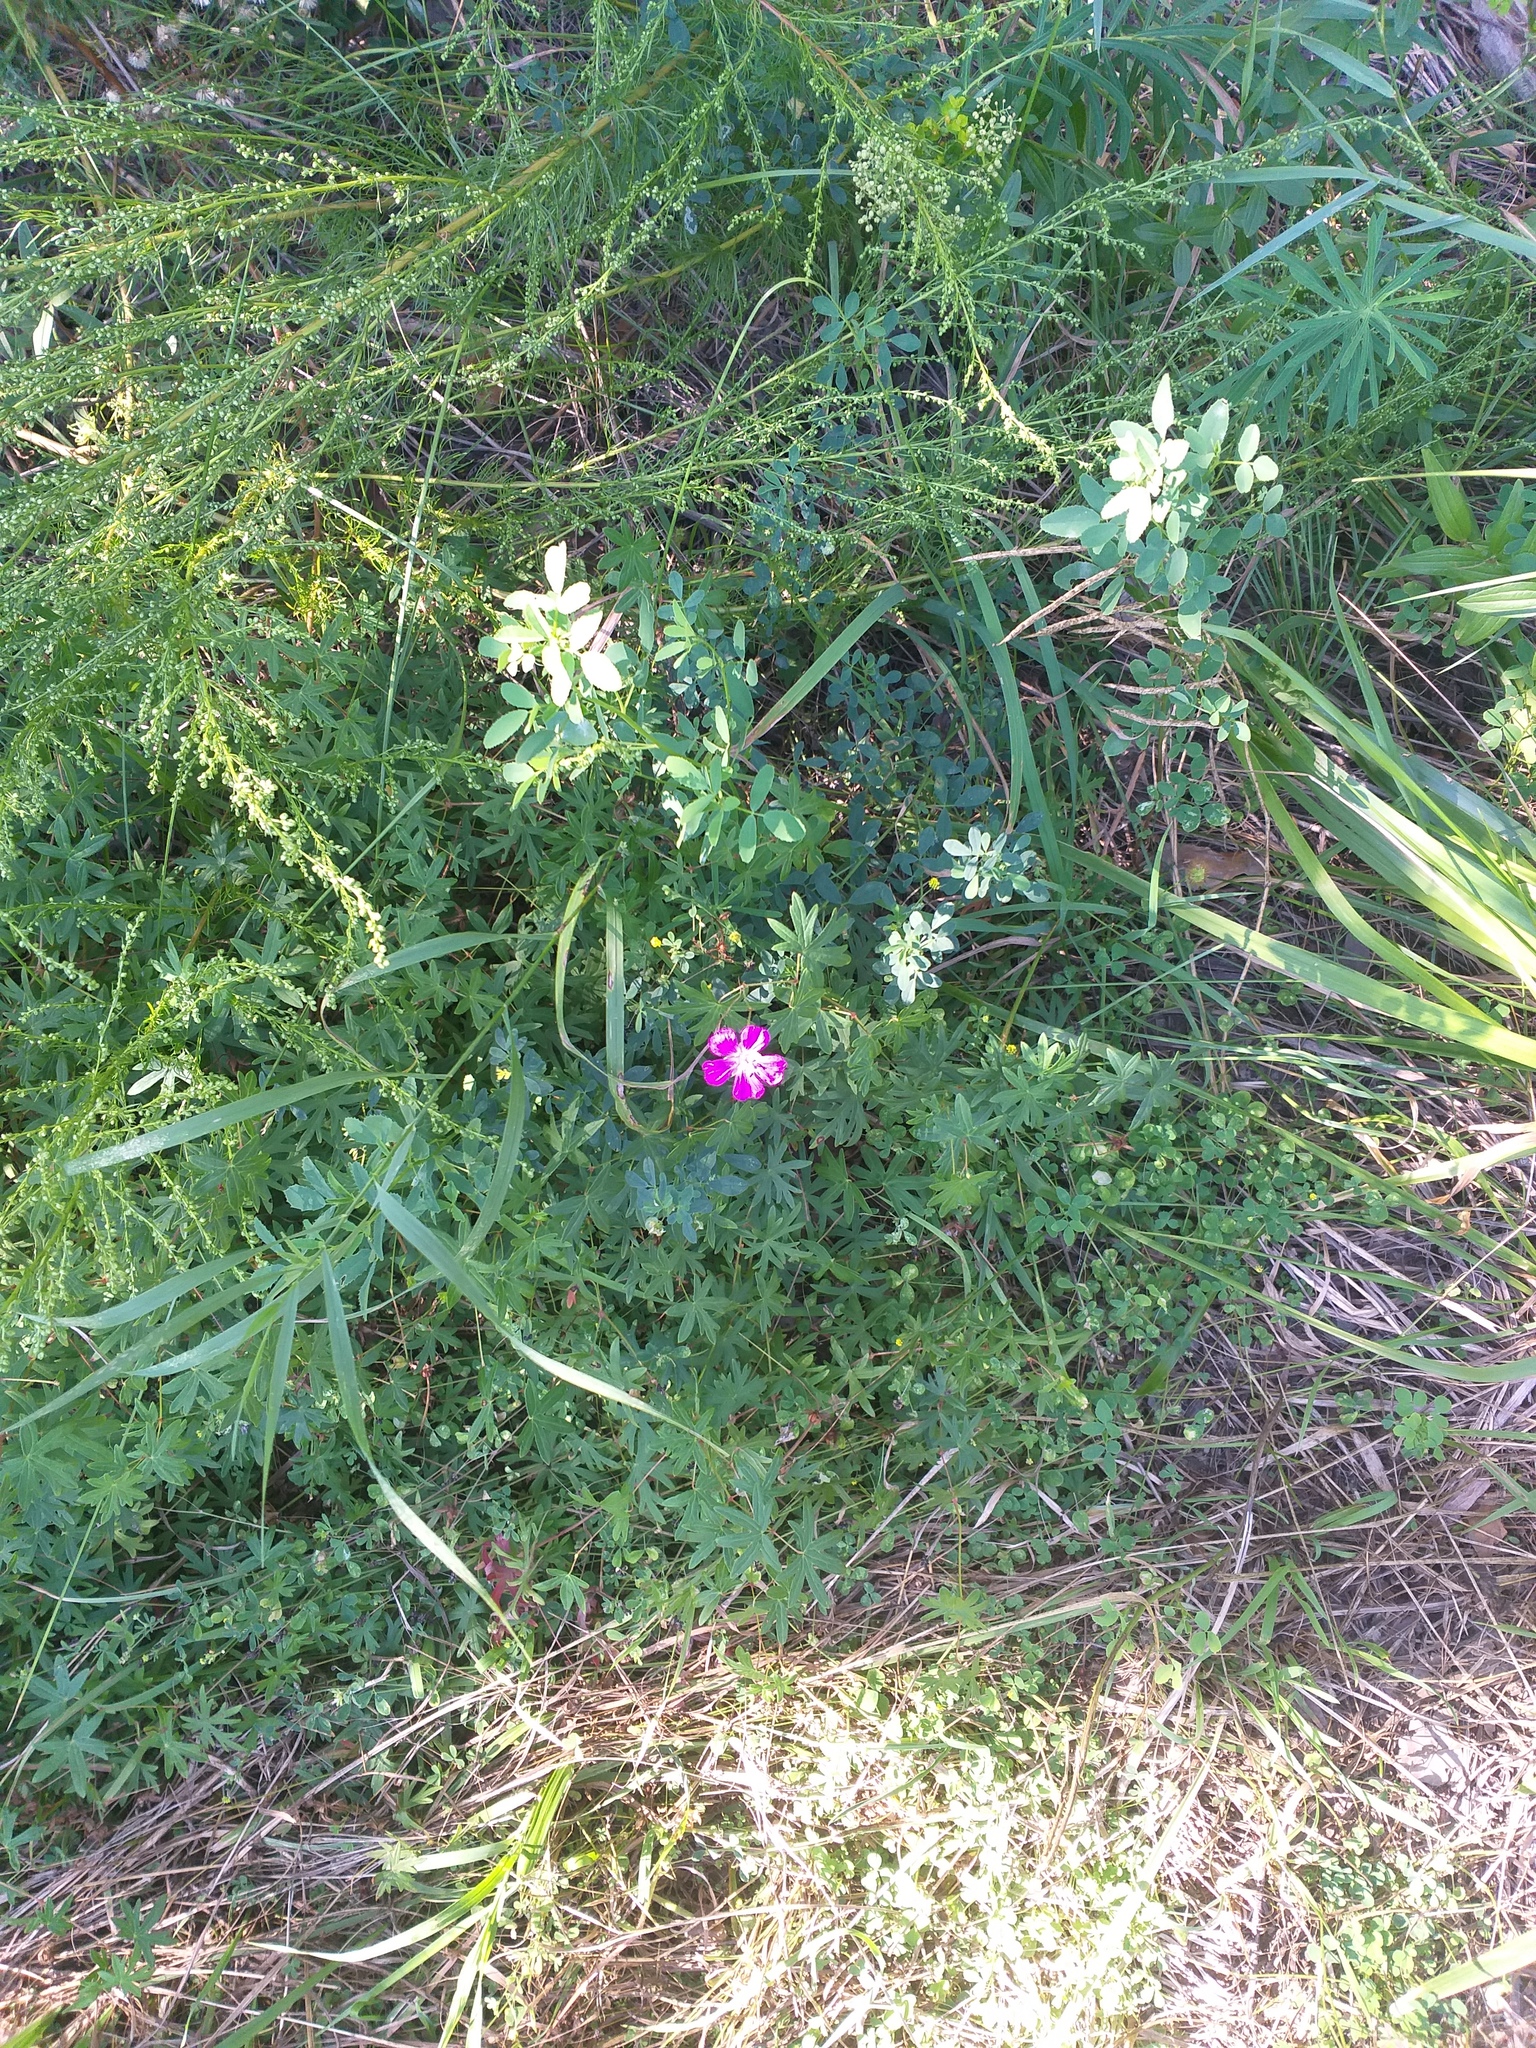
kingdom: Plantae
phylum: Tracheophyta
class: Magnoliopsida
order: Geraniales
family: Geraniaceae
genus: Geranium
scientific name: Geranium sanguineum
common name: Bloody crane's-bill
